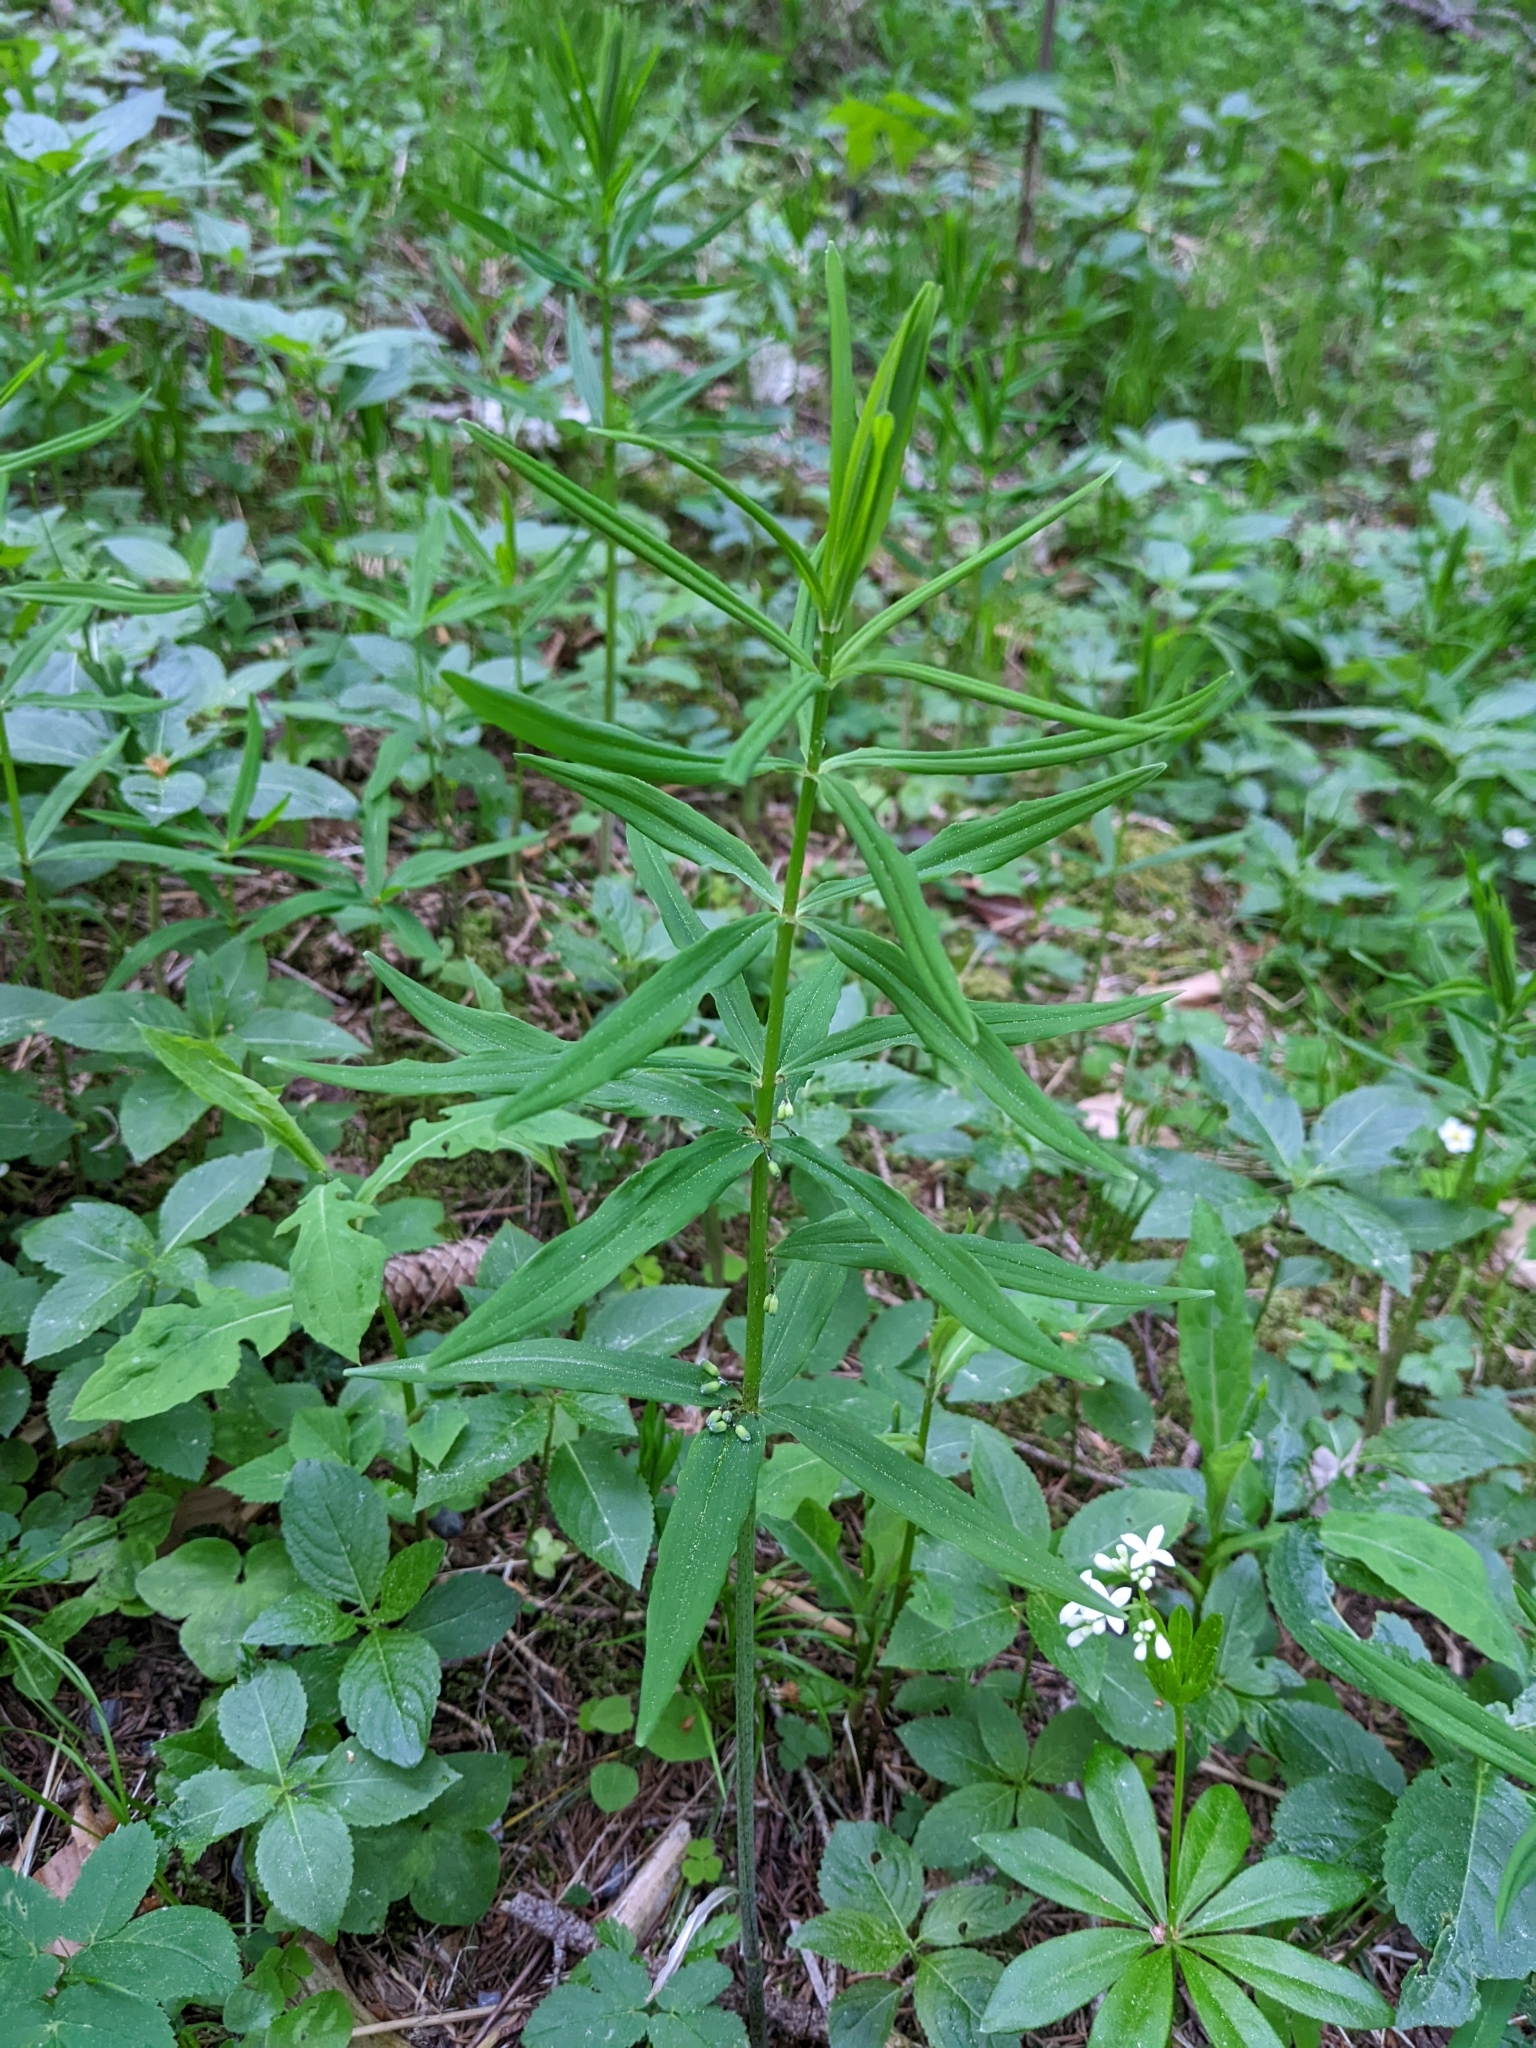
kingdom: Plantae
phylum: Tracheophyta
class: Liliopsida
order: Asparagales
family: Asparagaceae
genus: Polygonatum
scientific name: Polygonatum verticillatum
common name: Whorled solomon's-seal
